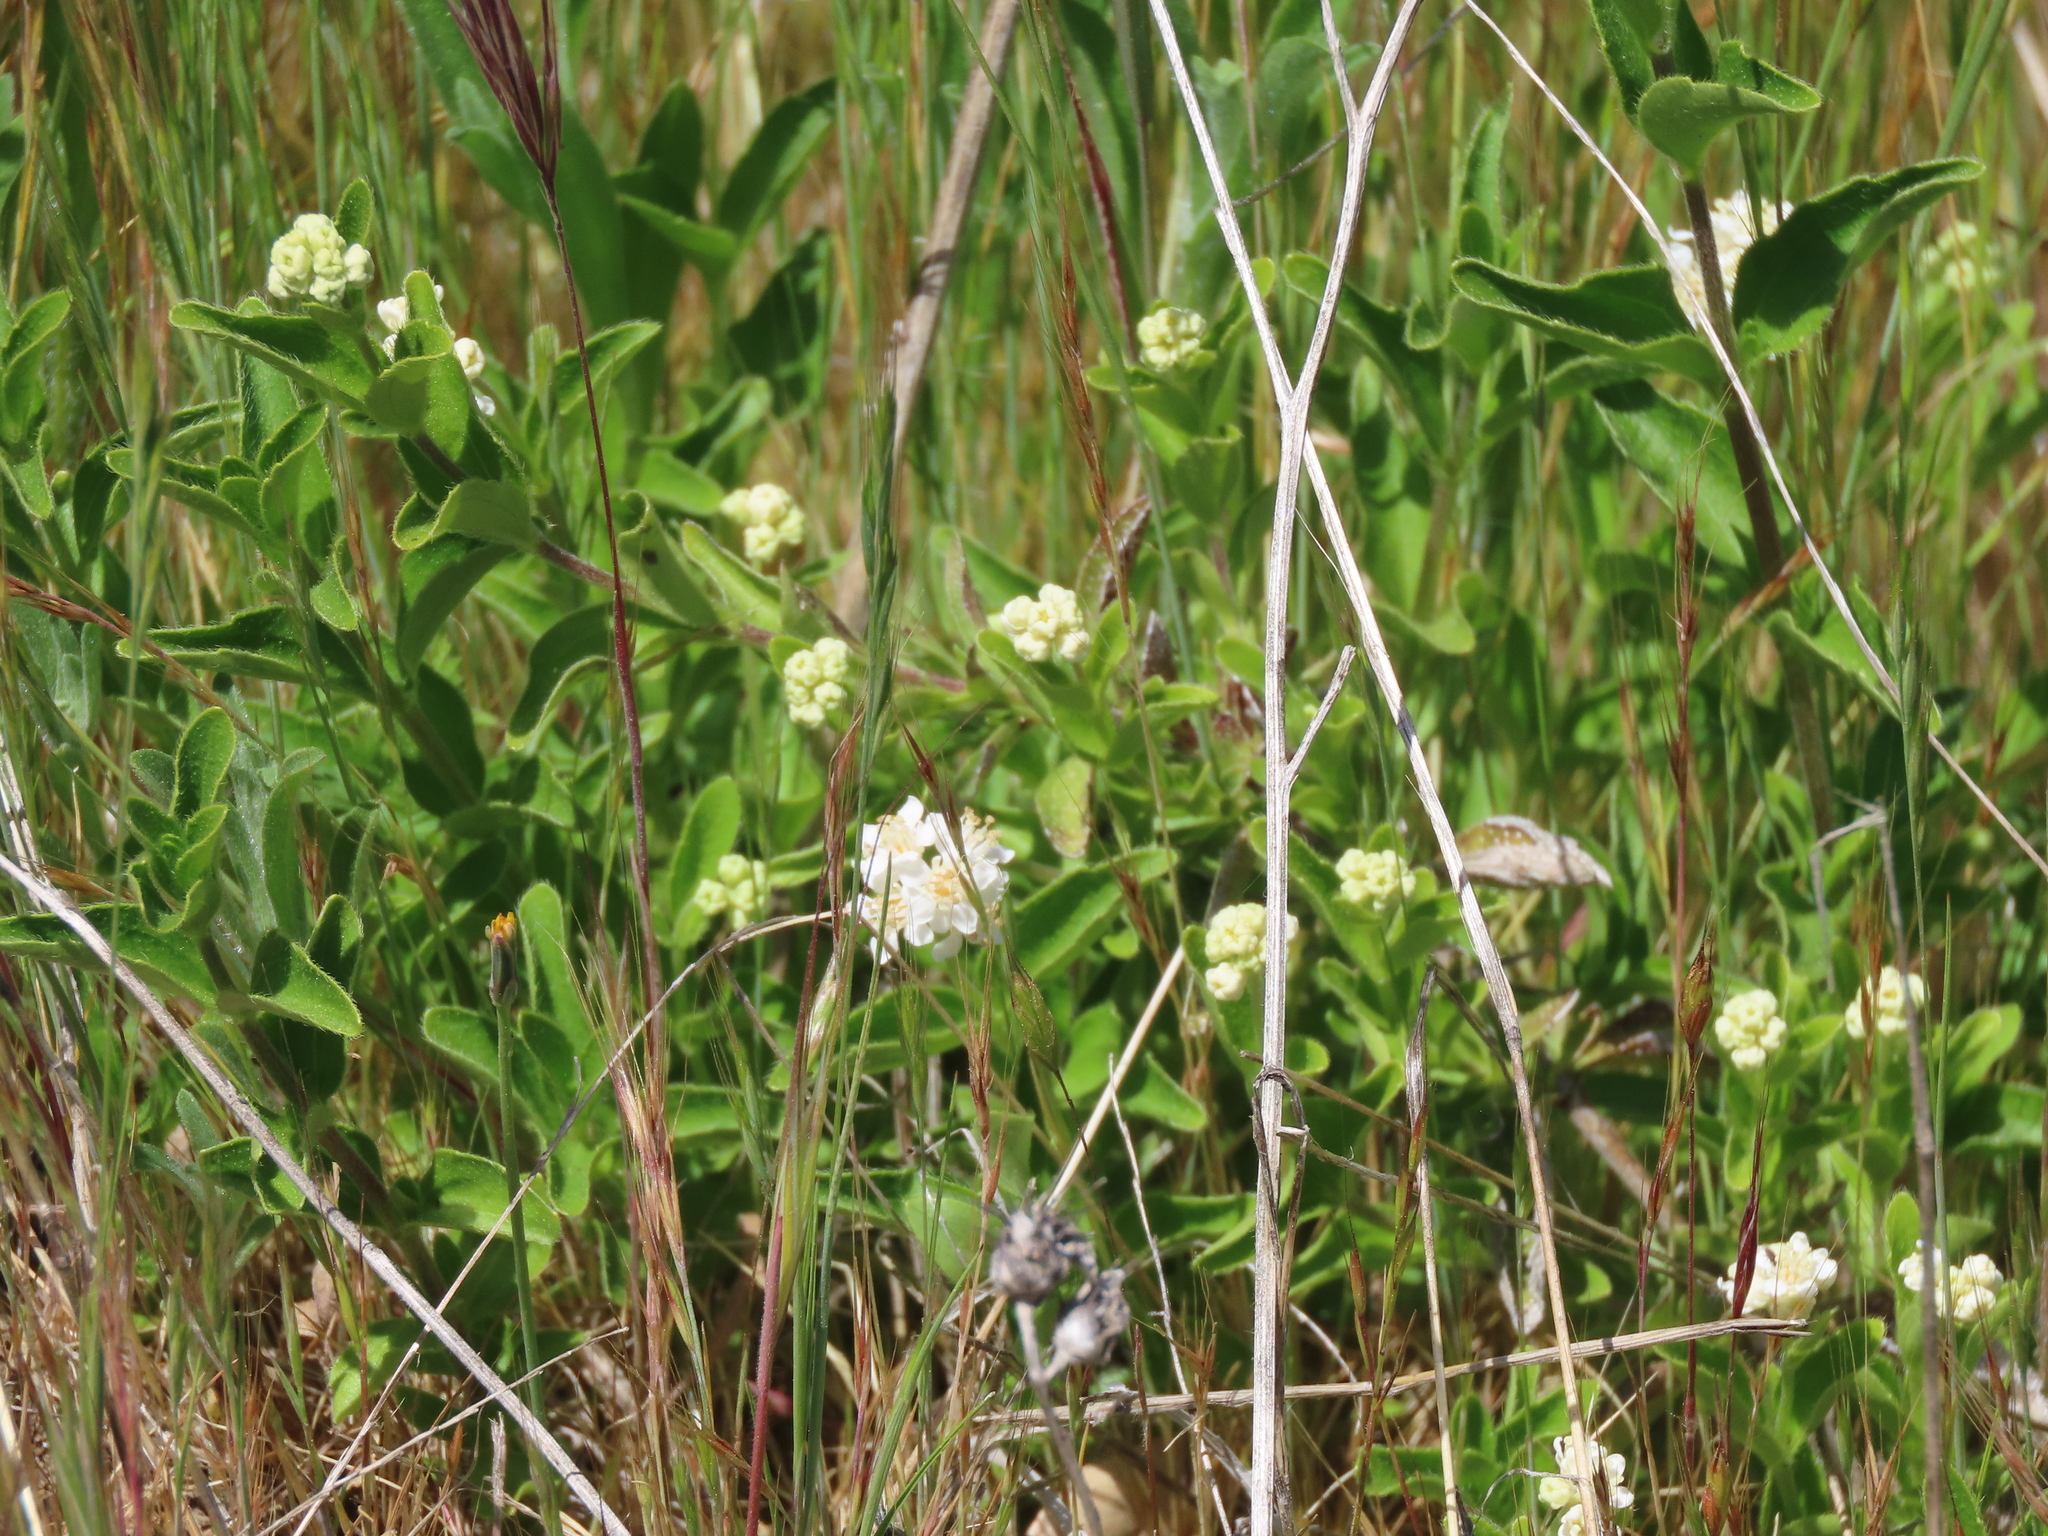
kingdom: Plantae
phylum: Tracheophyta
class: Magnoliopsida
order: Cornales
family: Hydrangeaceae
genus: Whipplea
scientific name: Whipplea modesta
